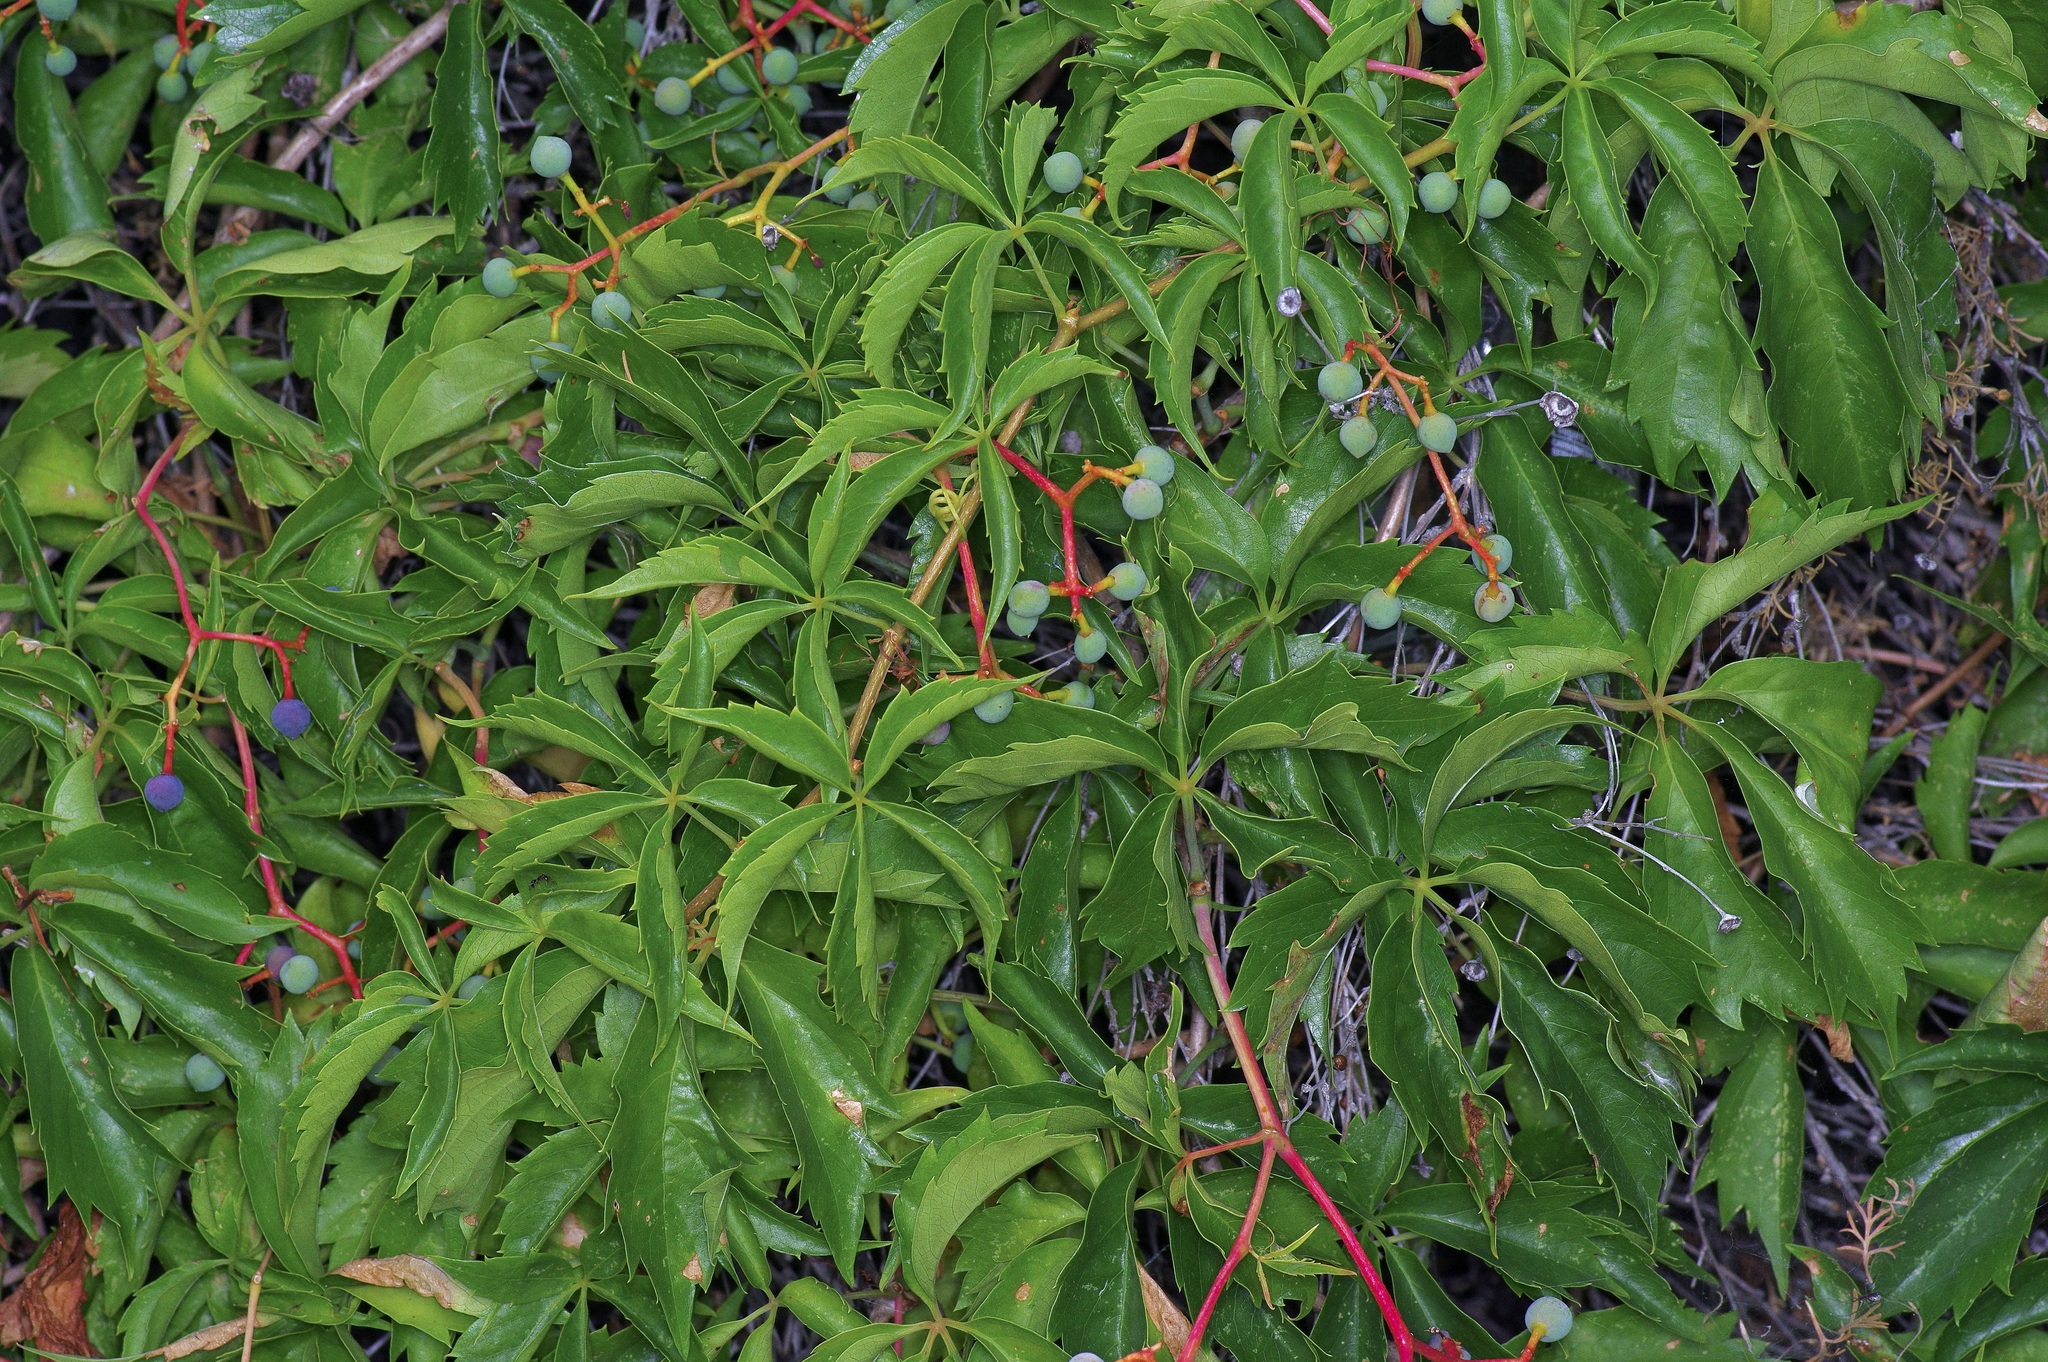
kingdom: Plantae
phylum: Tracheophyta
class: Magnoliopsida
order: Vitales
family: Vitaceae
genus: Parthenocissus
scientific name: Parthenocissus quinquefolia
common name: Virginia-creeper
